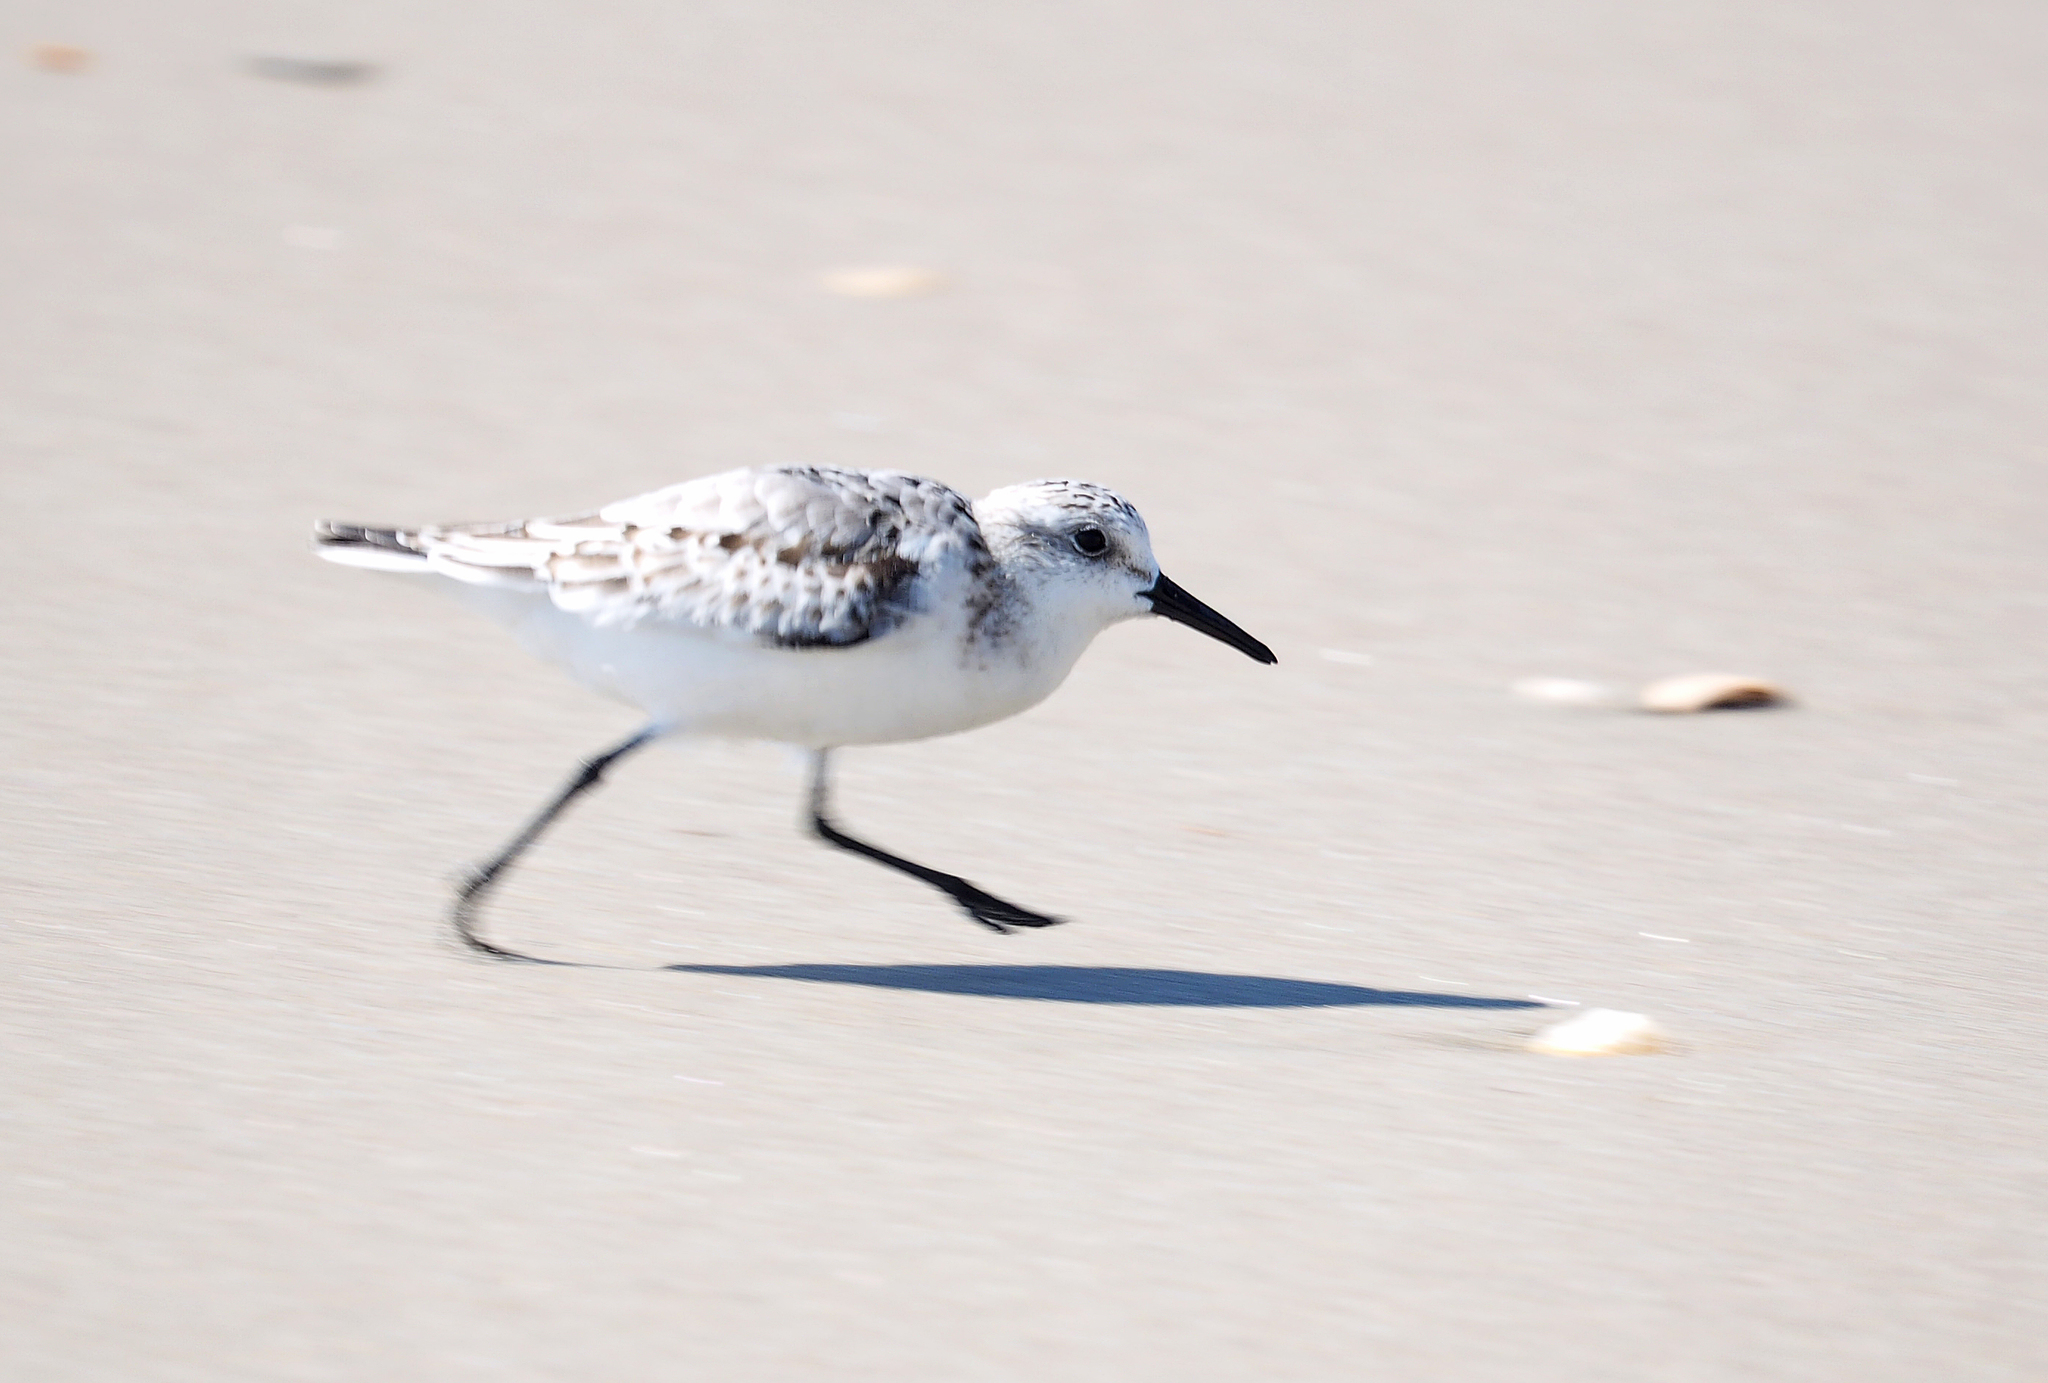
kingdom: Animalia
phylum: Chordata
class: Aves
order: Charadriiformes
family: Scolopacidae
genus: Calidris
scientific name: Calidris alba
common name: Sanderling
